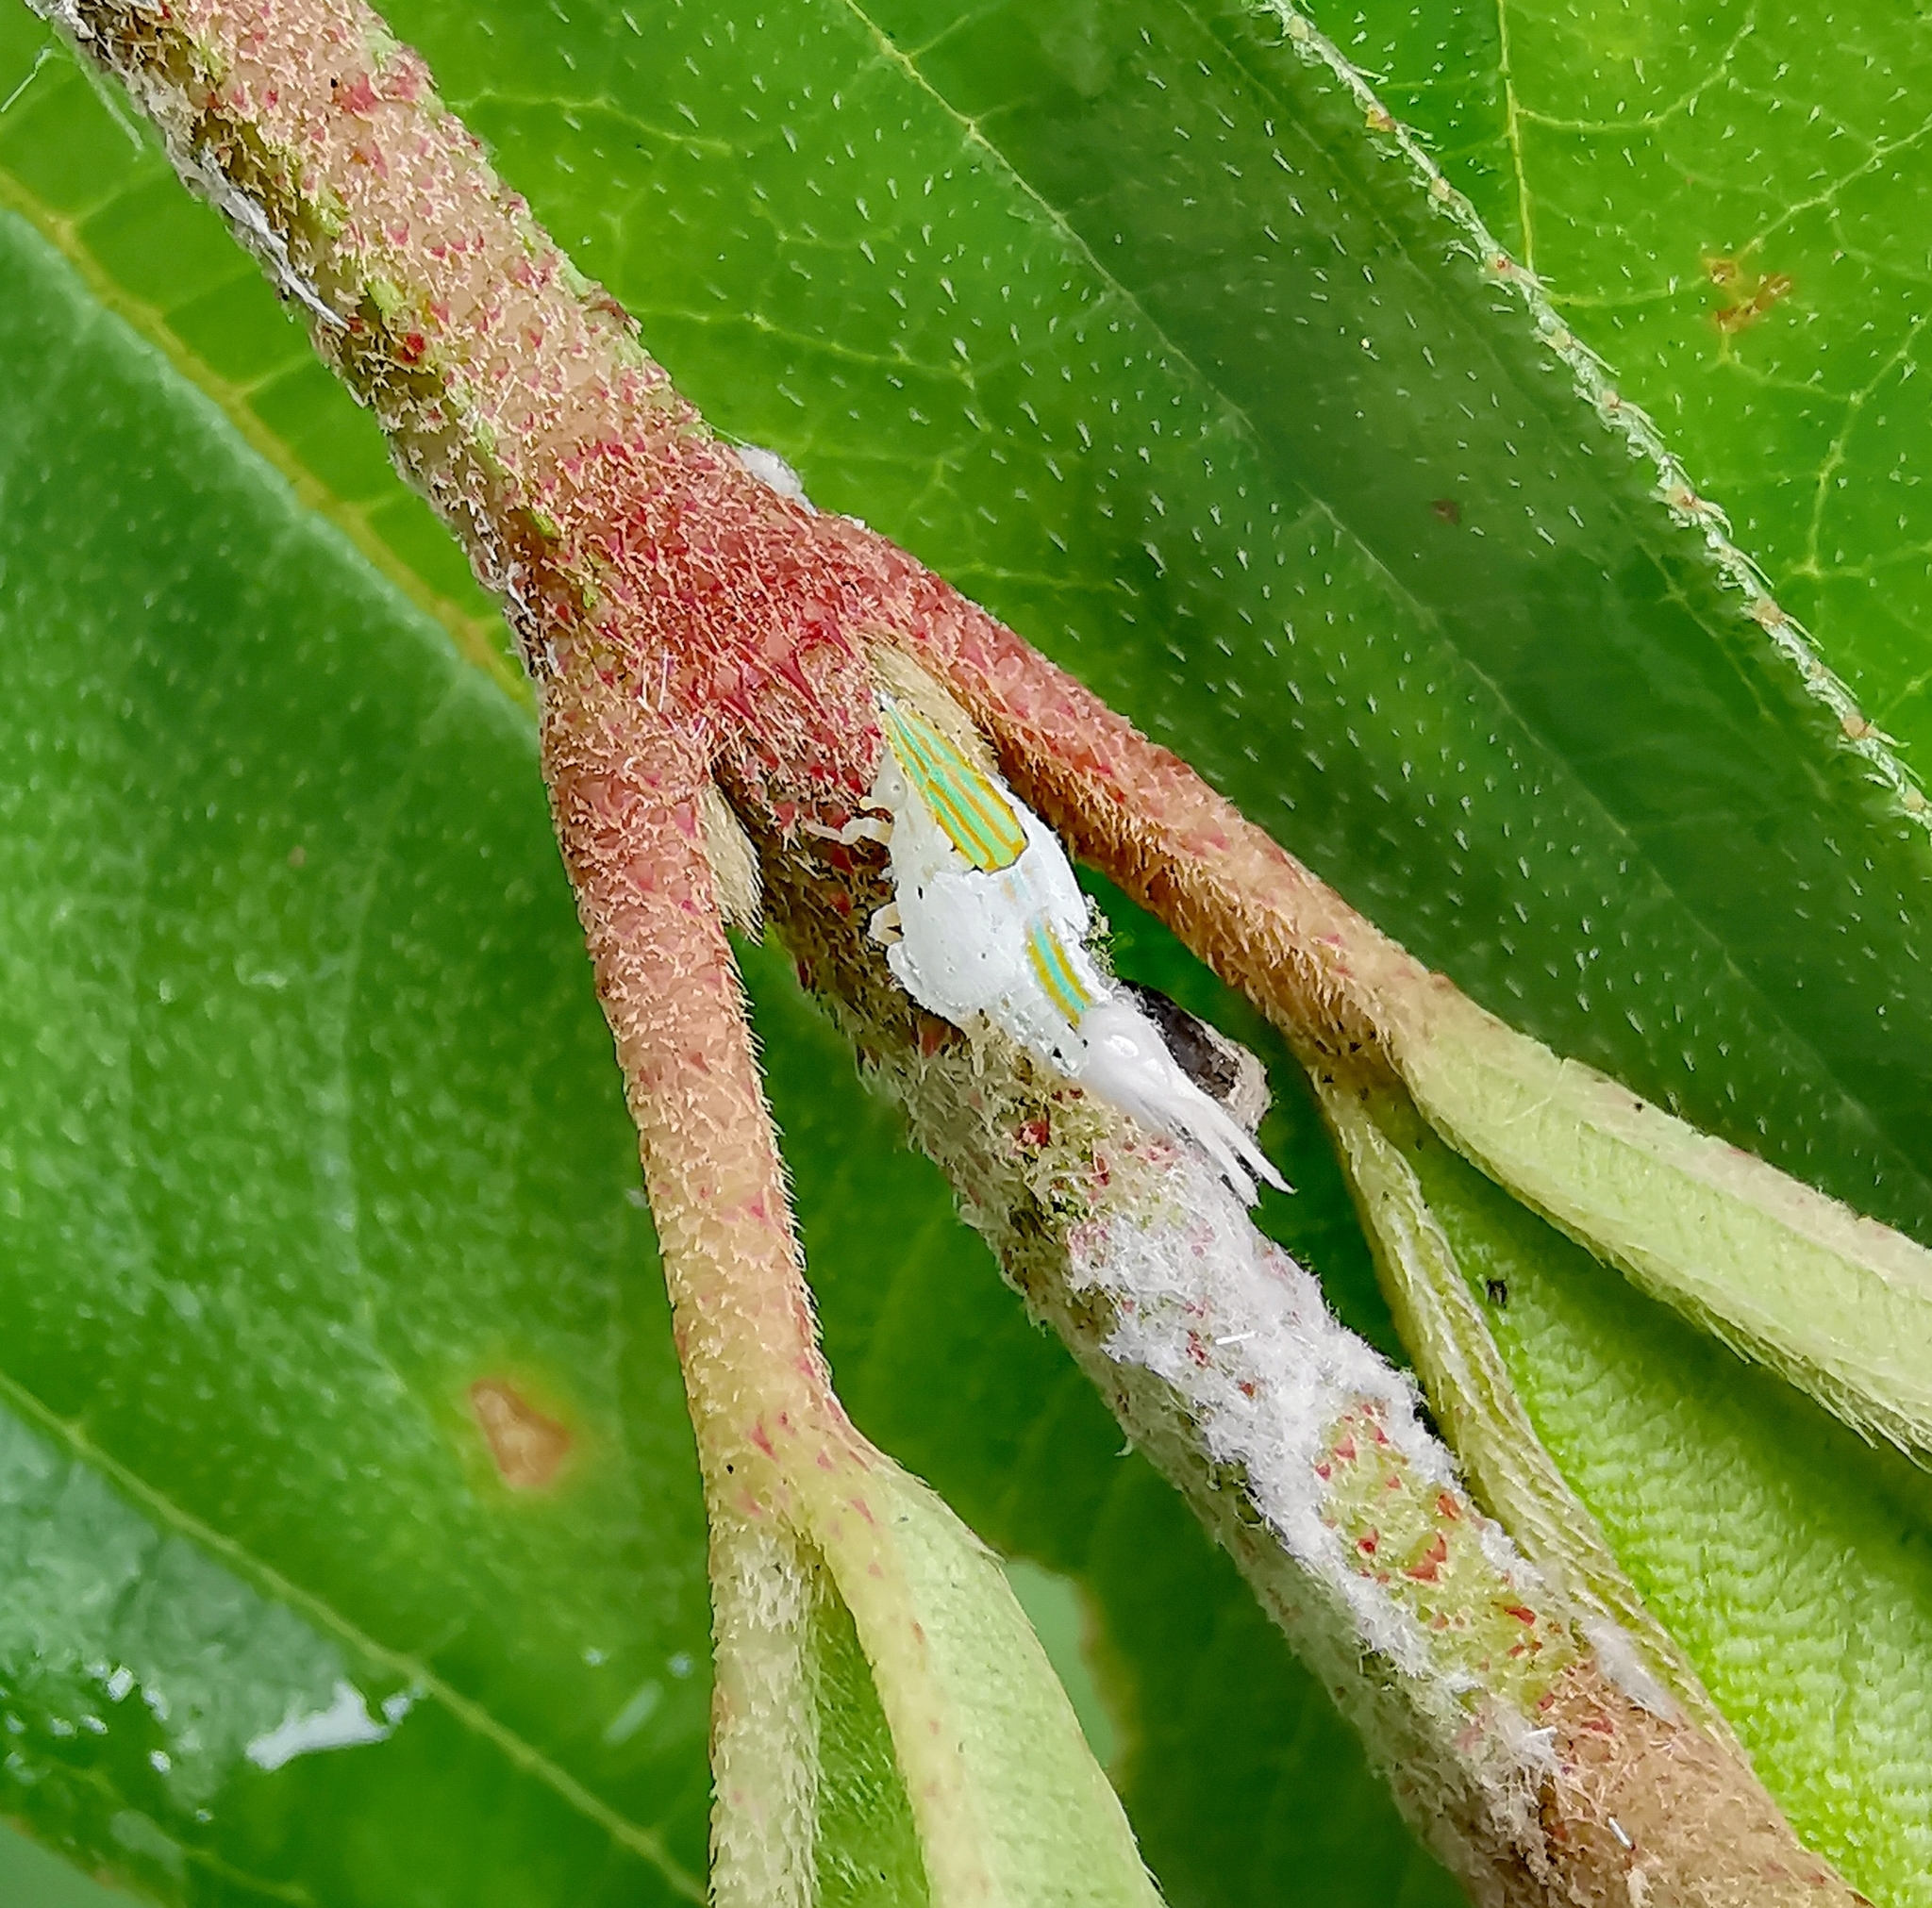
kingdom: Animalia
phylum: Arthropoda
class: Insecta
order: Hemiptera
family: Flatidae
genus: Salurnis
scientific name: Salurnis marginella
